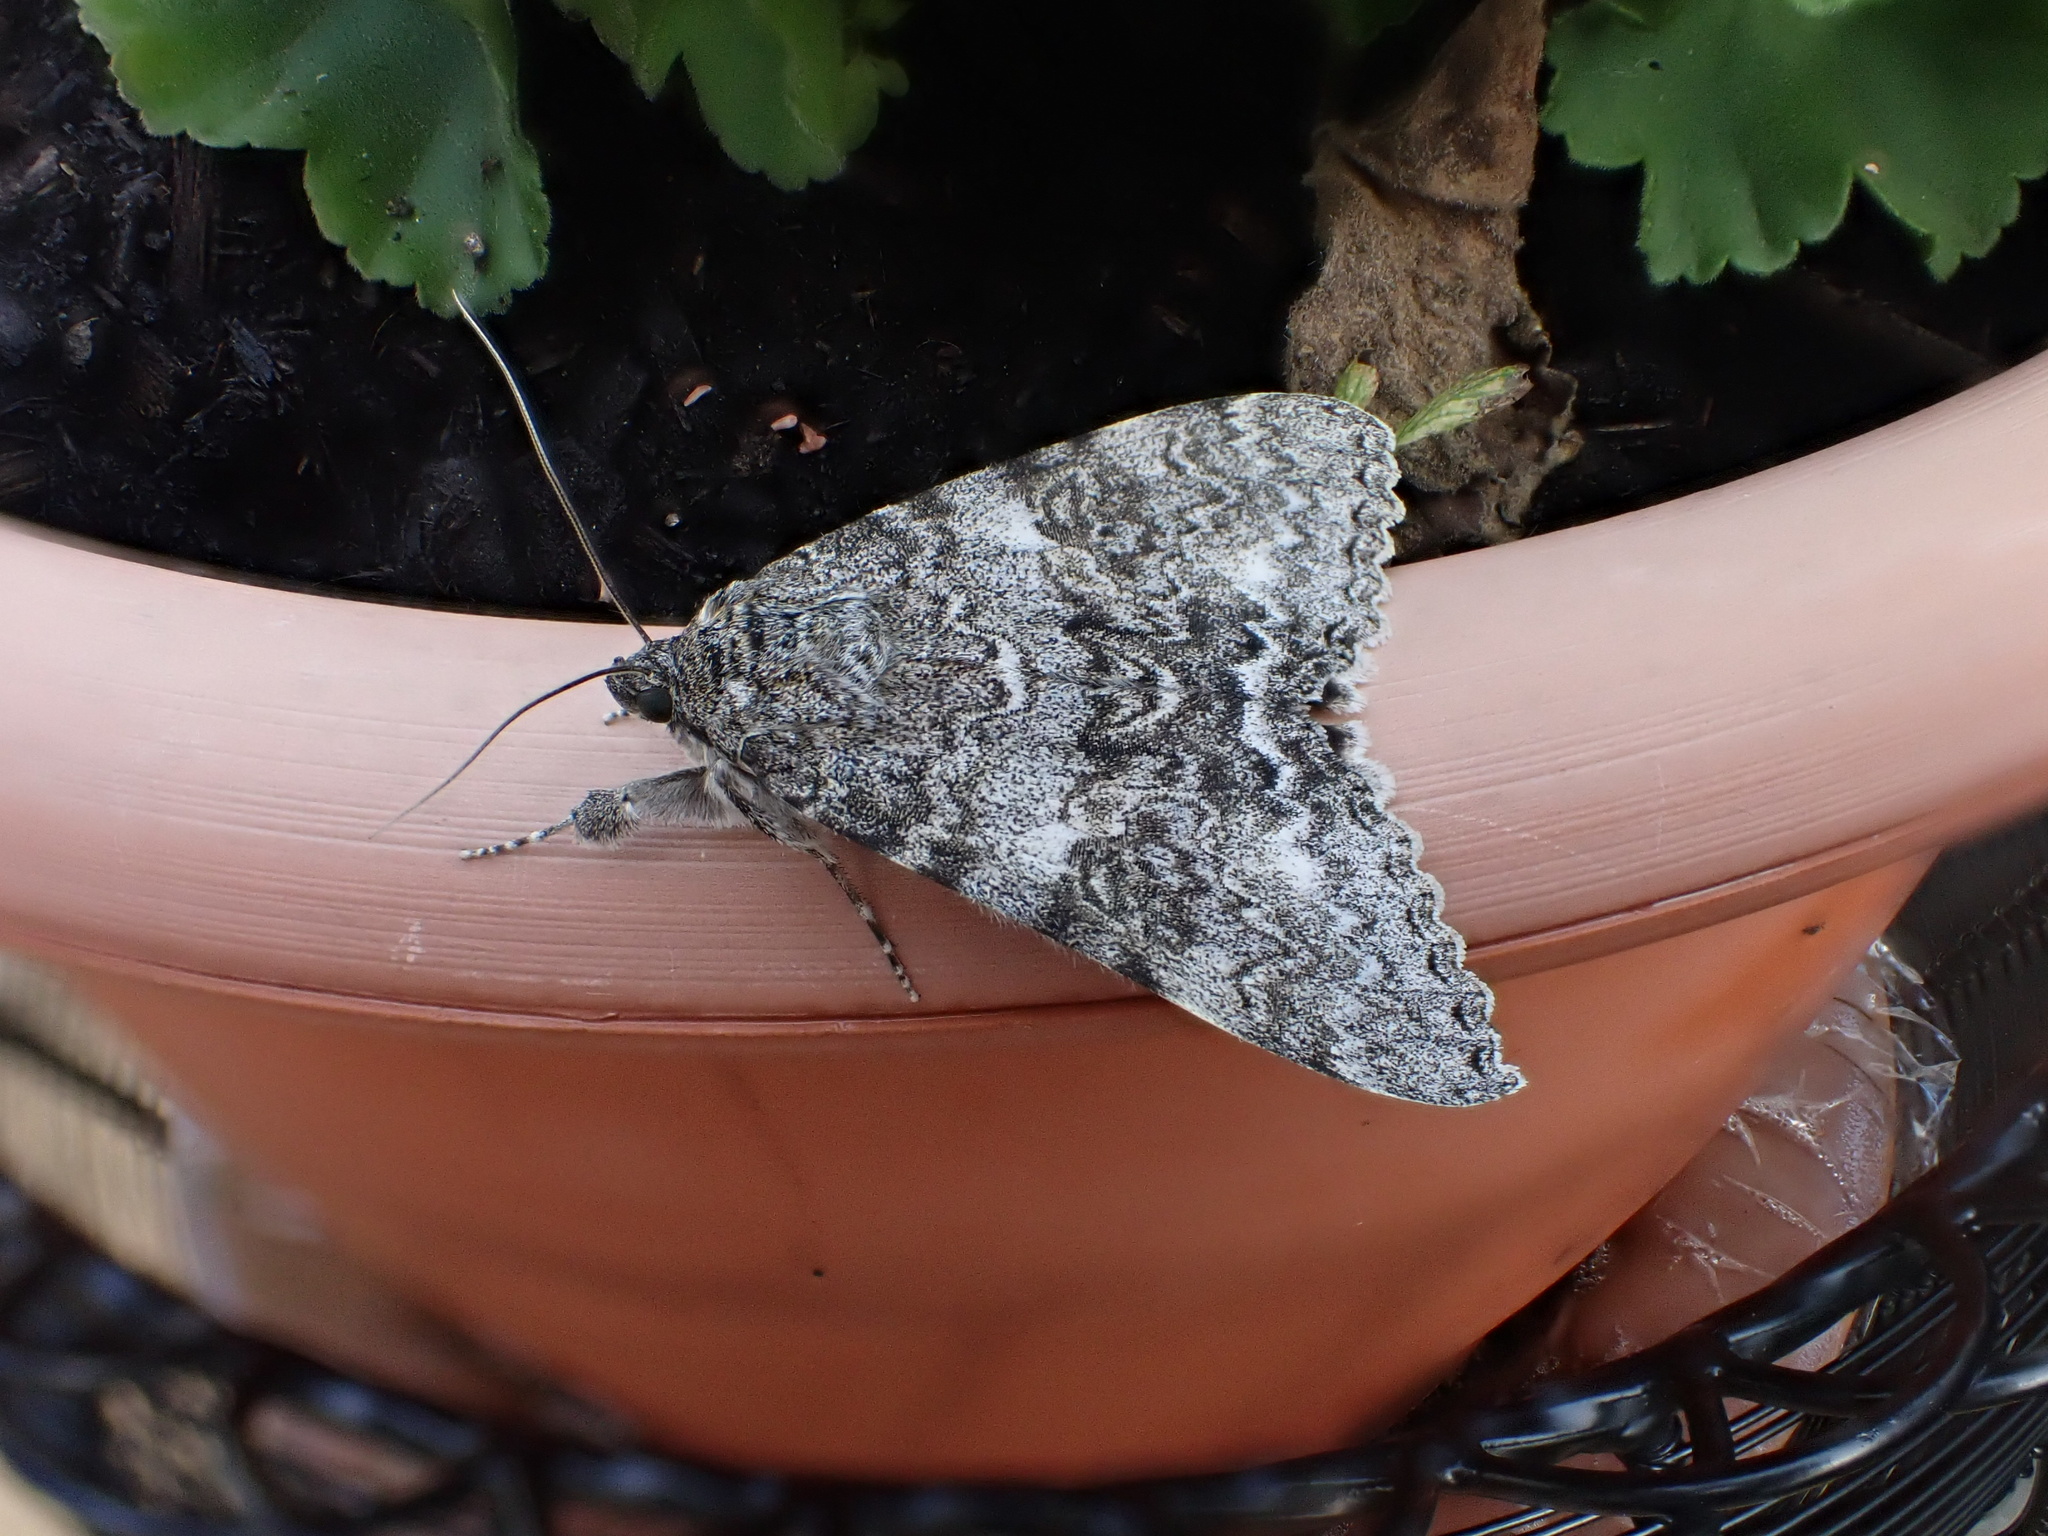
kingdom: Animalia
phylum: Arthropoda
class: Insecta
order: Lepidoptera
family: Erebidae
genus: Catocala
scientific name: Catocala unijuga
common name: Once-married underwing
